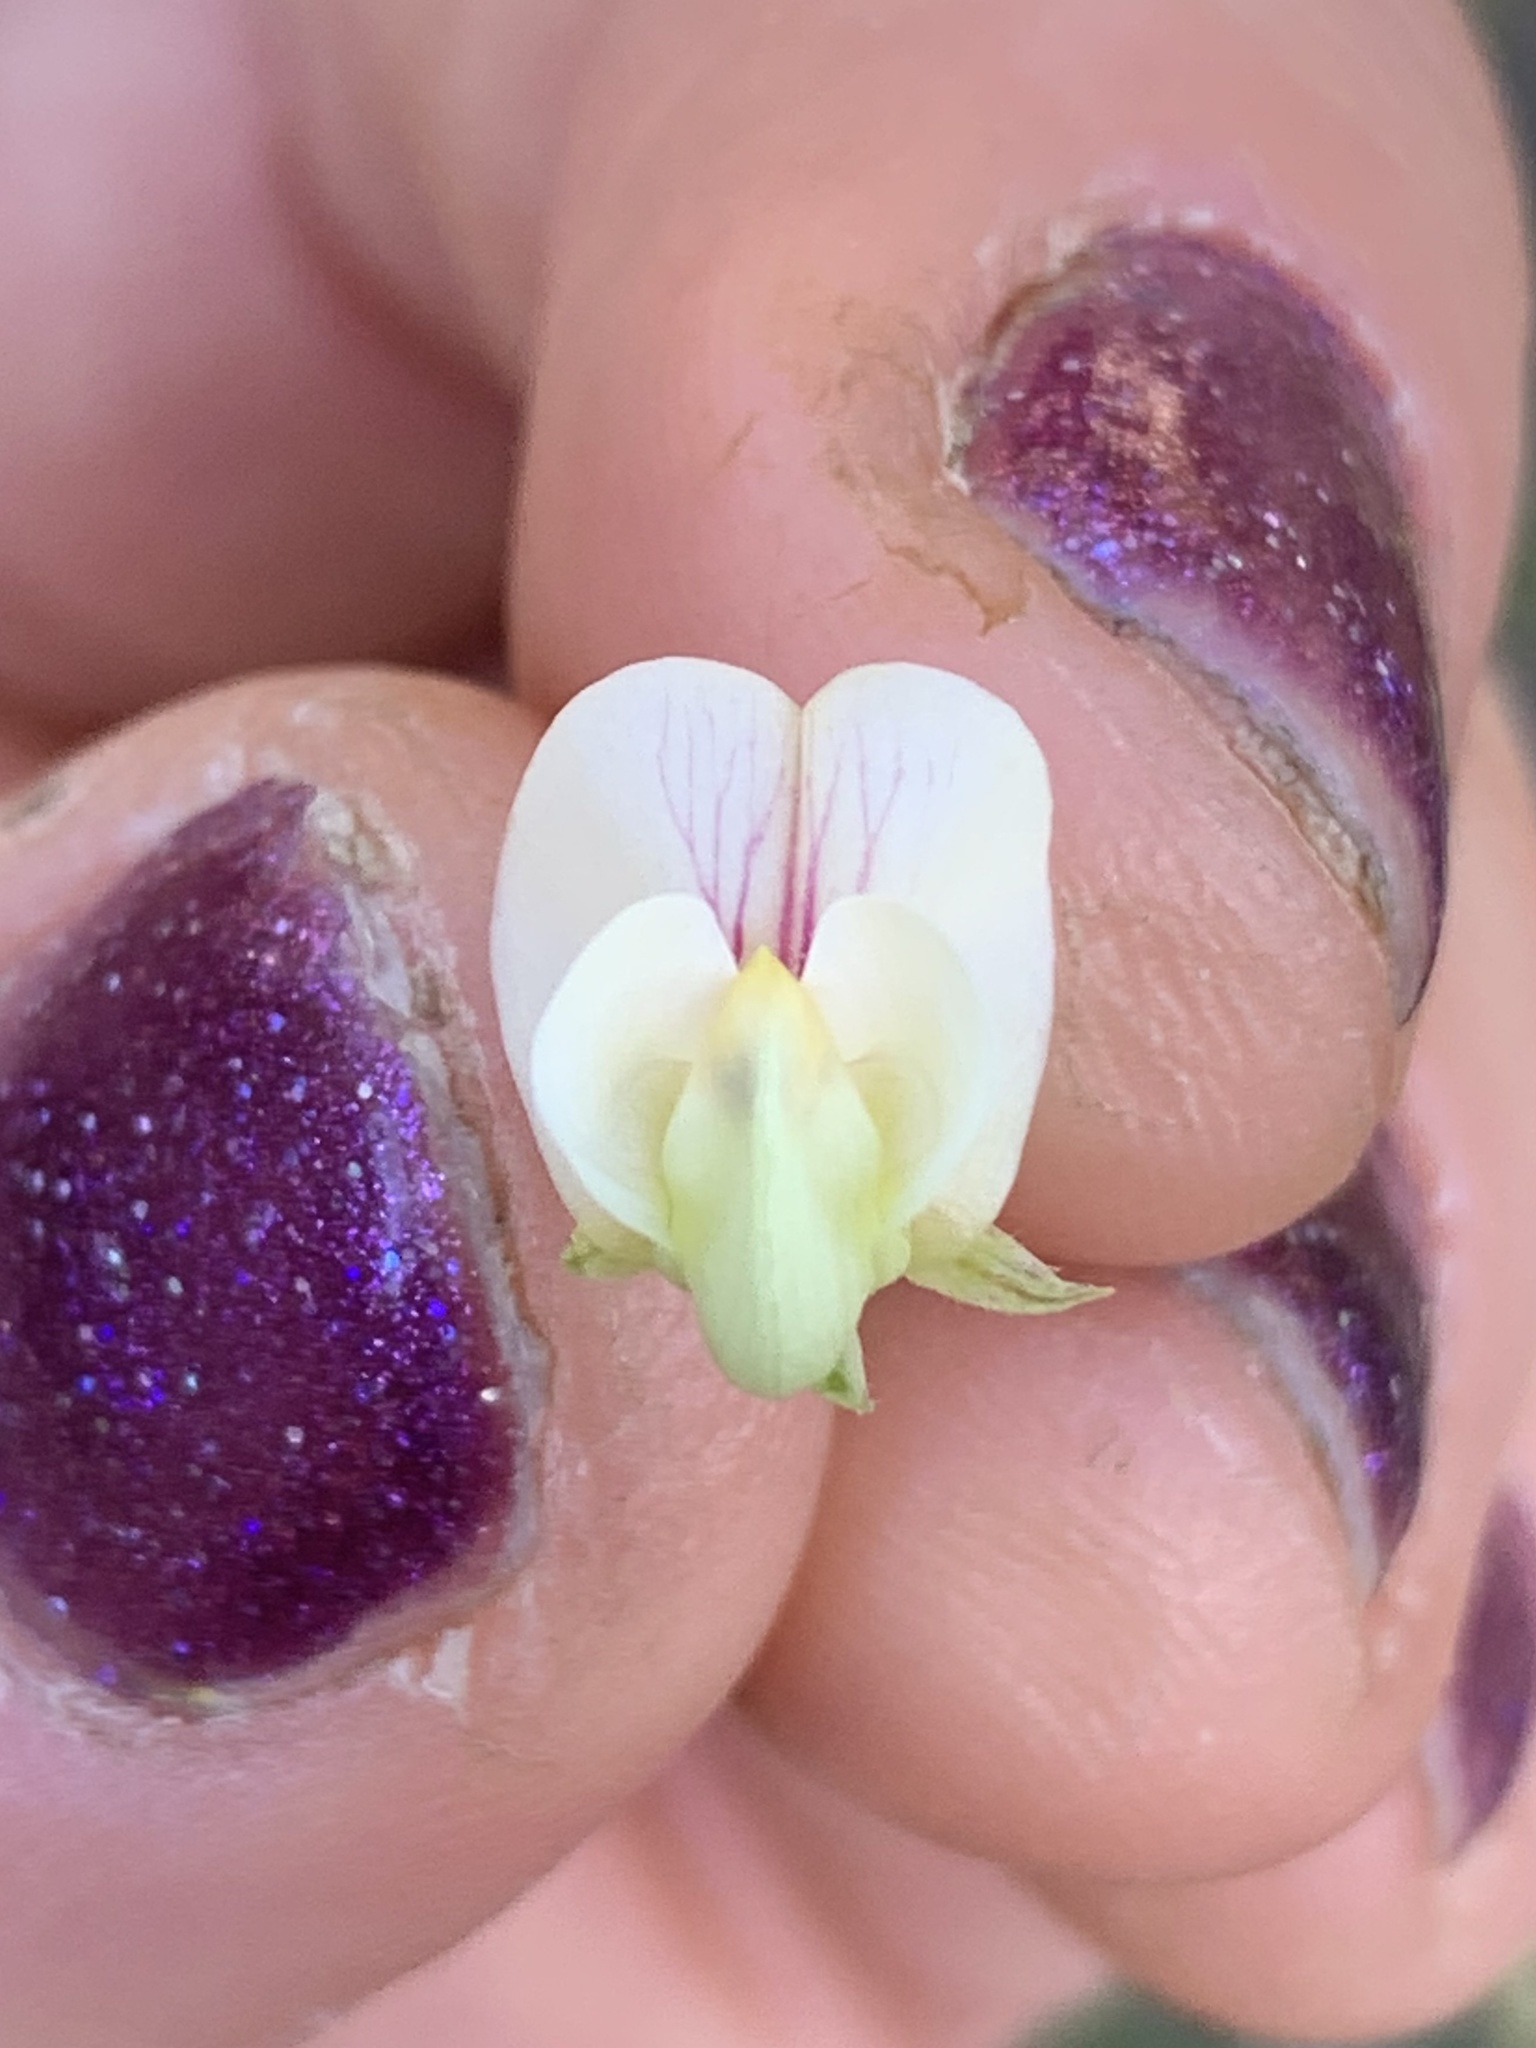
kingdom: Plantae
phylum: Tracheophyta
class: Magnoliopsida
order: Fabales
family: Fabaceae
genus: Lathyrus
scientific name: Lathyrus delnorticus
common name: Del norte-pea
